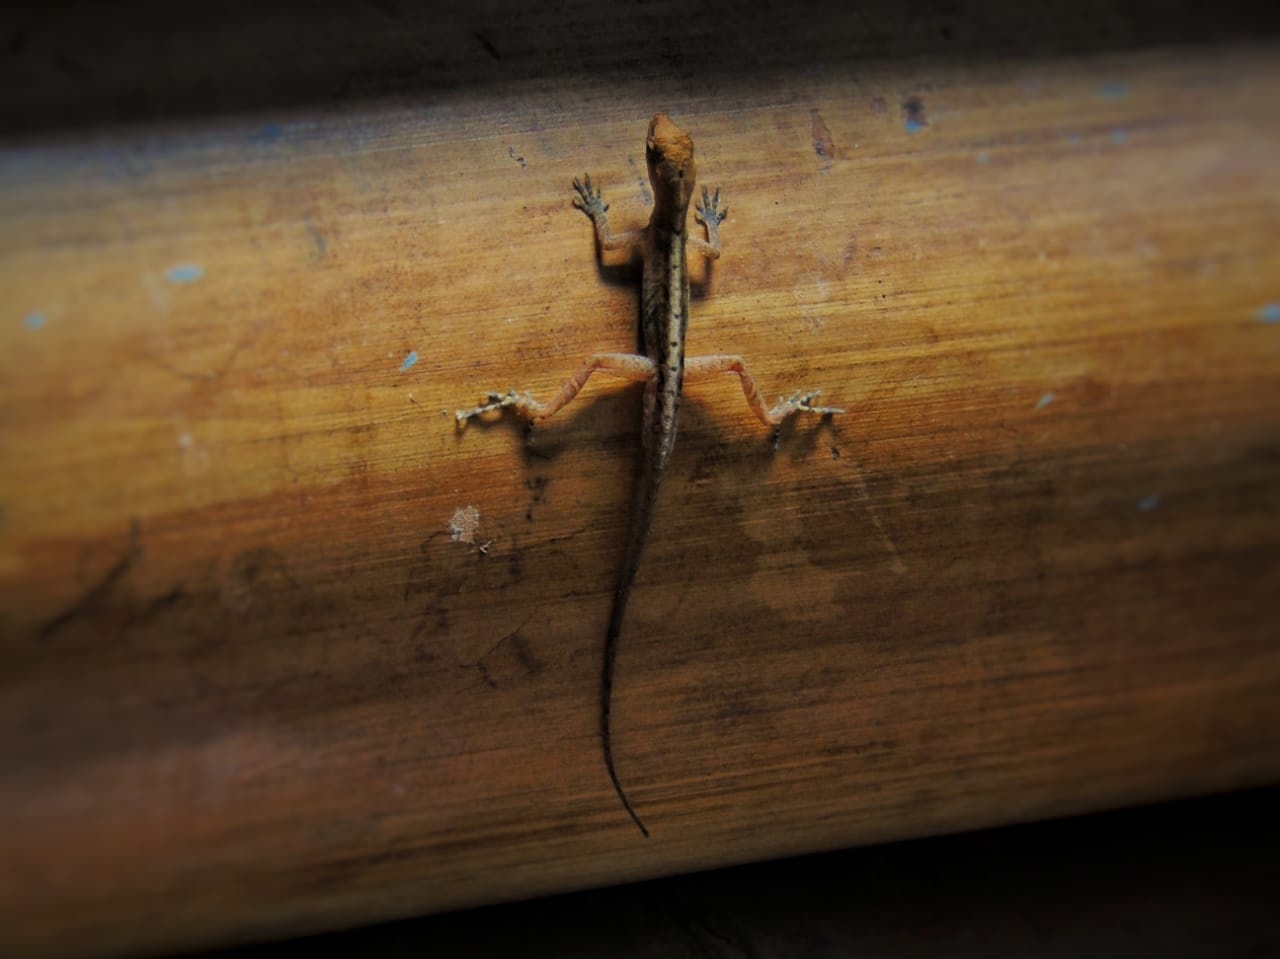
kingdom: Animalia
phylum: Chordata
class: Squamata
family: Dactyloidae
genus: Anolis
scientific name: Anolis cupreus
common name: Copper anole
